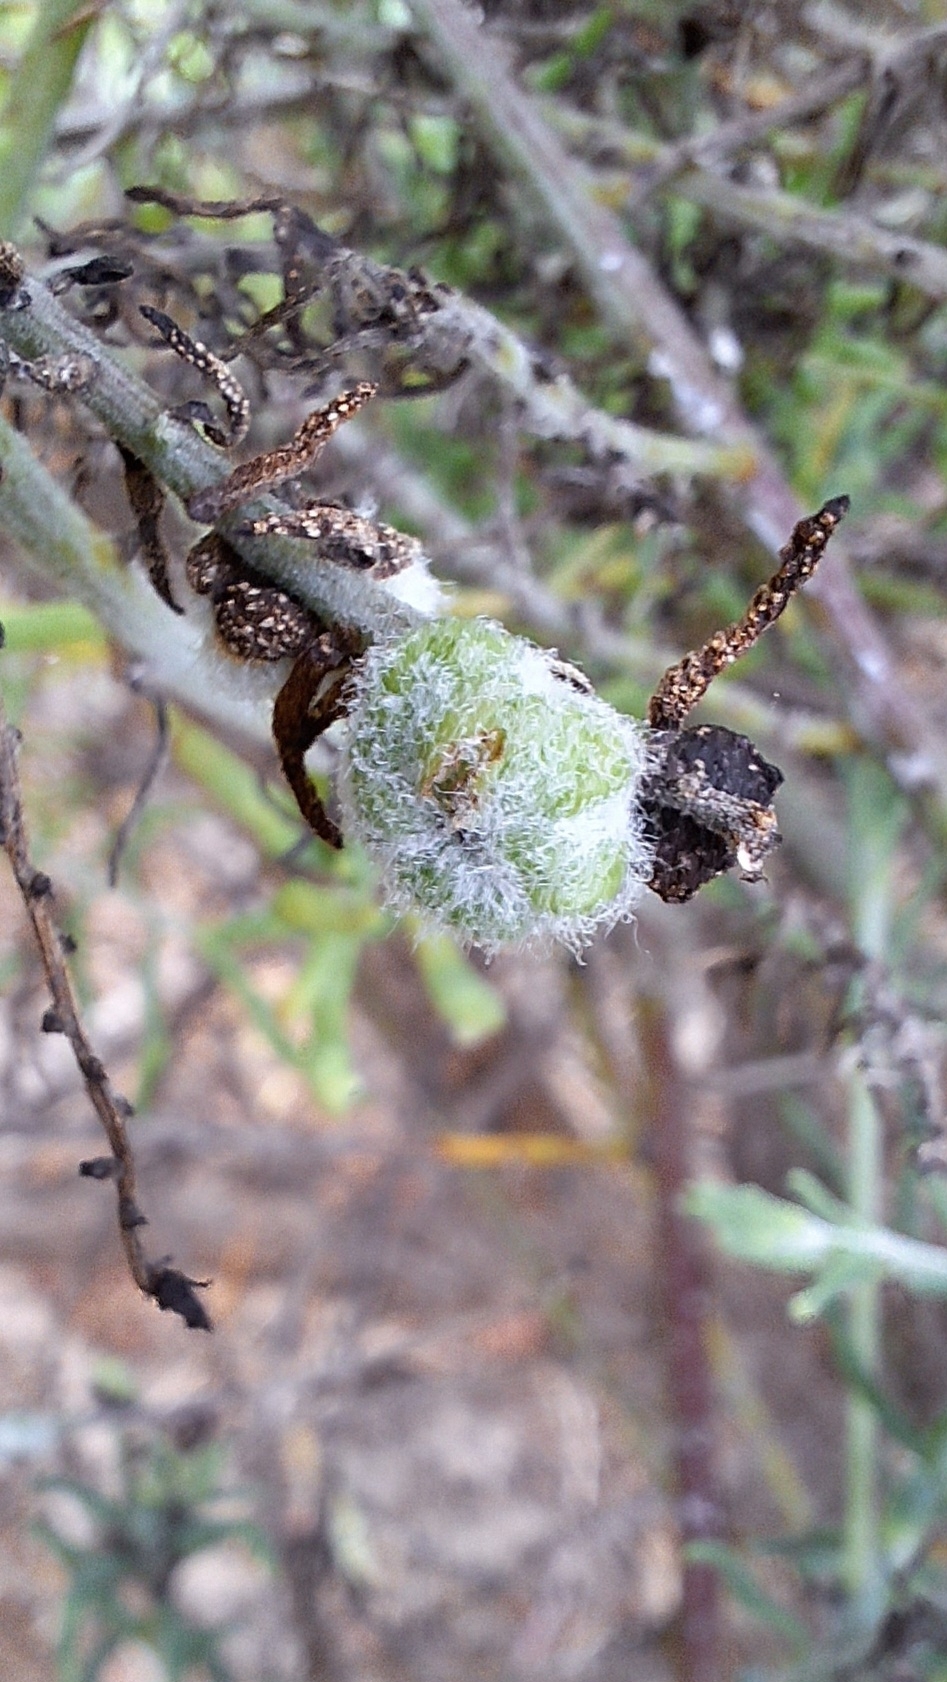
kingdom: Animalia
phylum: Arthropoda
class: Insecta
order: Diptera
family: Cecidomyiidae
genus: Asphondylia
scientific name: Asphondylia tonsura
